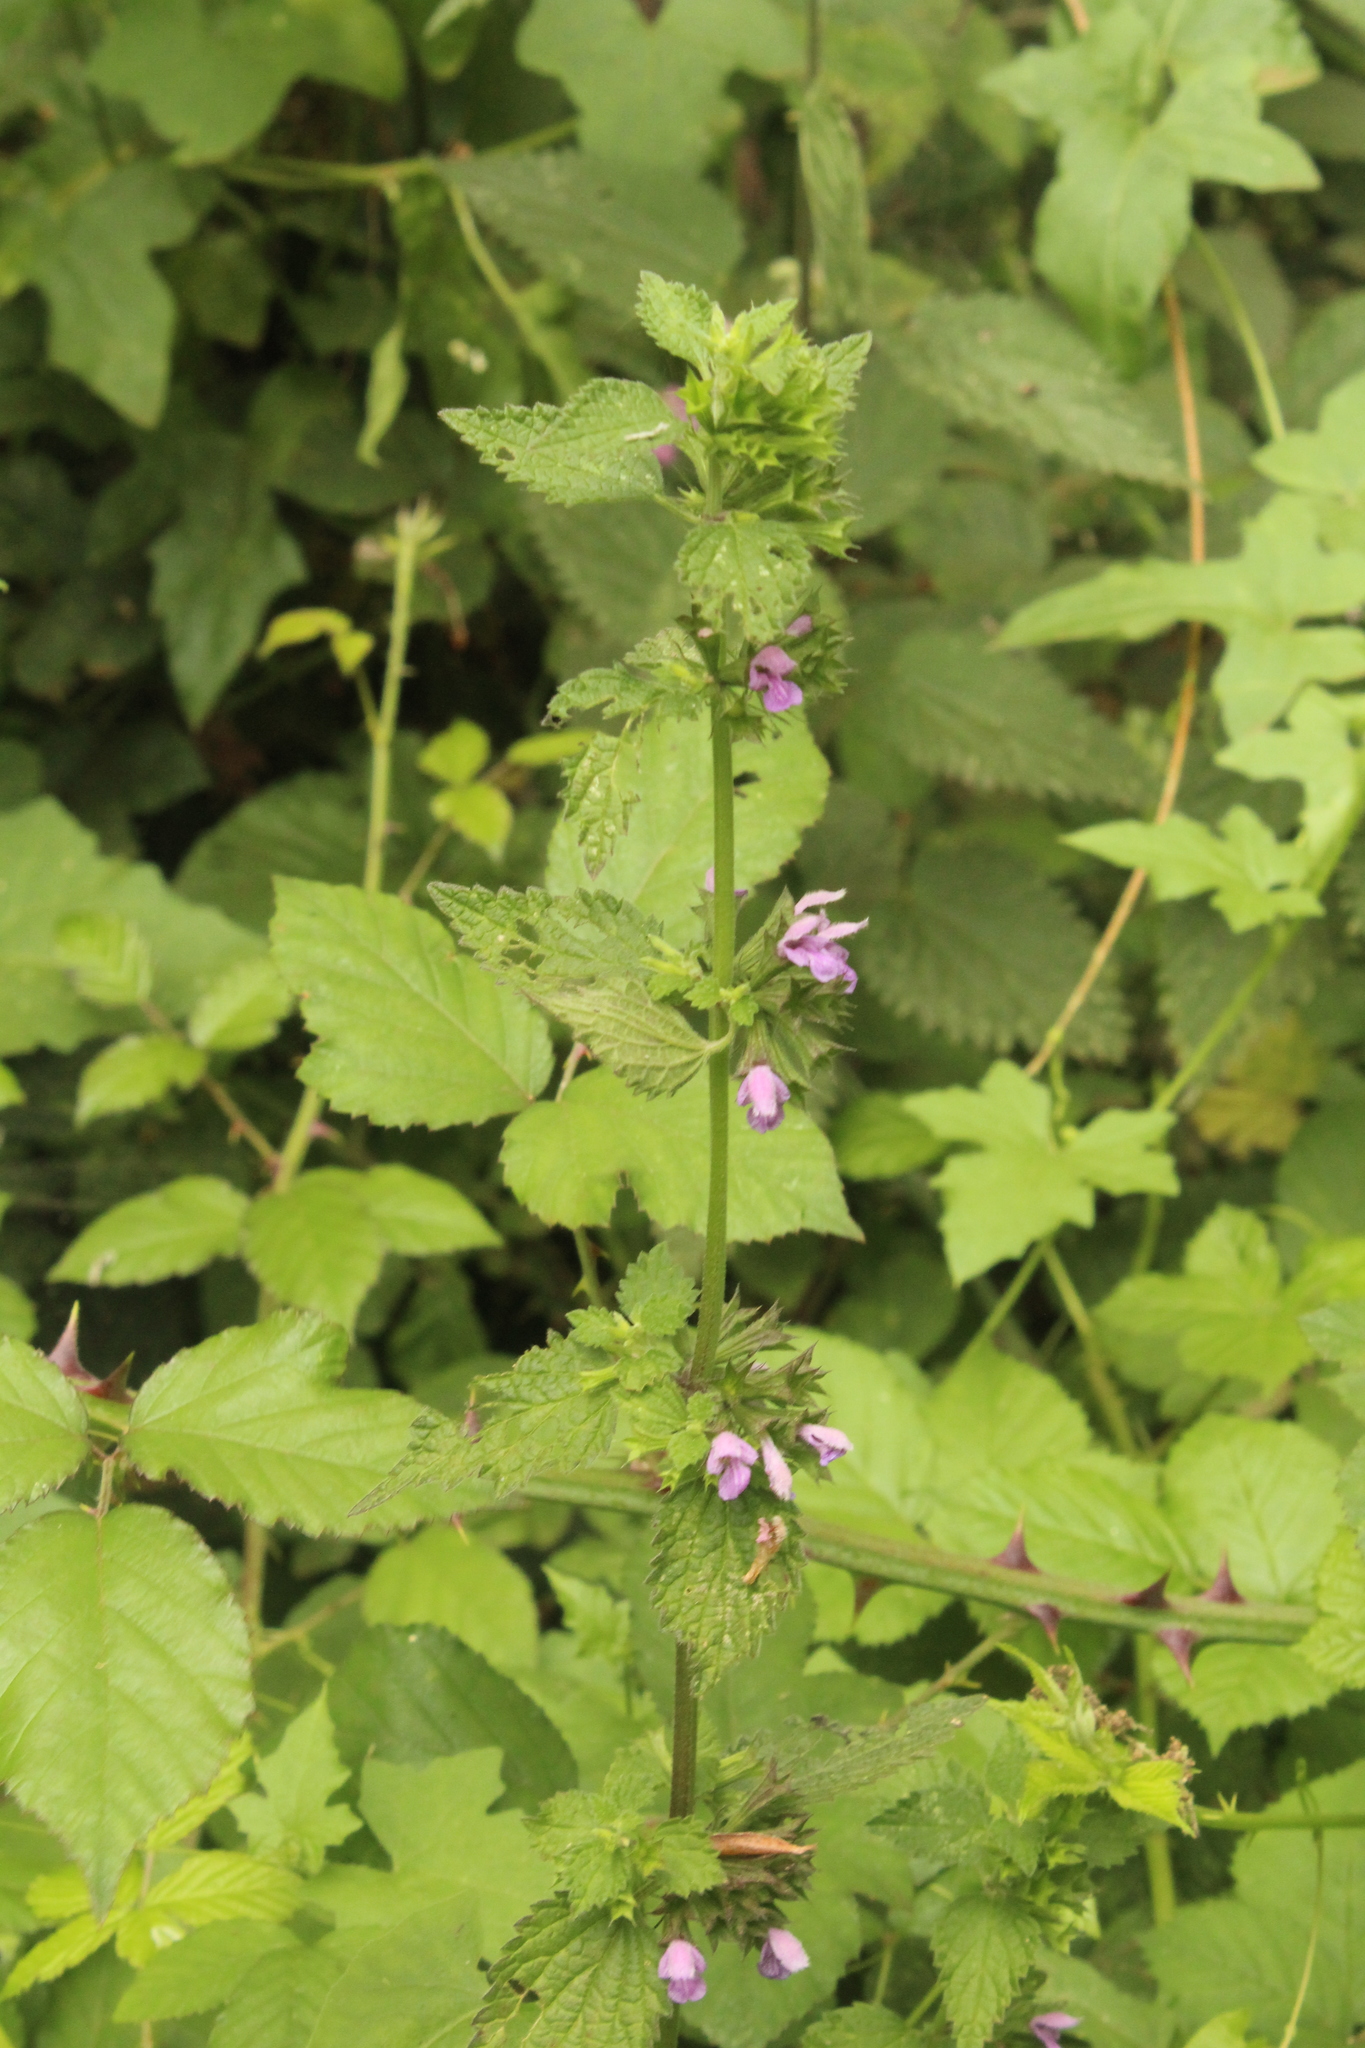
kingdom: Plantae
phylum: Tracheophyta
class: Magnoliopsida
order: Lamiales
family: Lamiaceae
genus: Ballota
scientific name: Ballota nigra
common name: Black horehound
